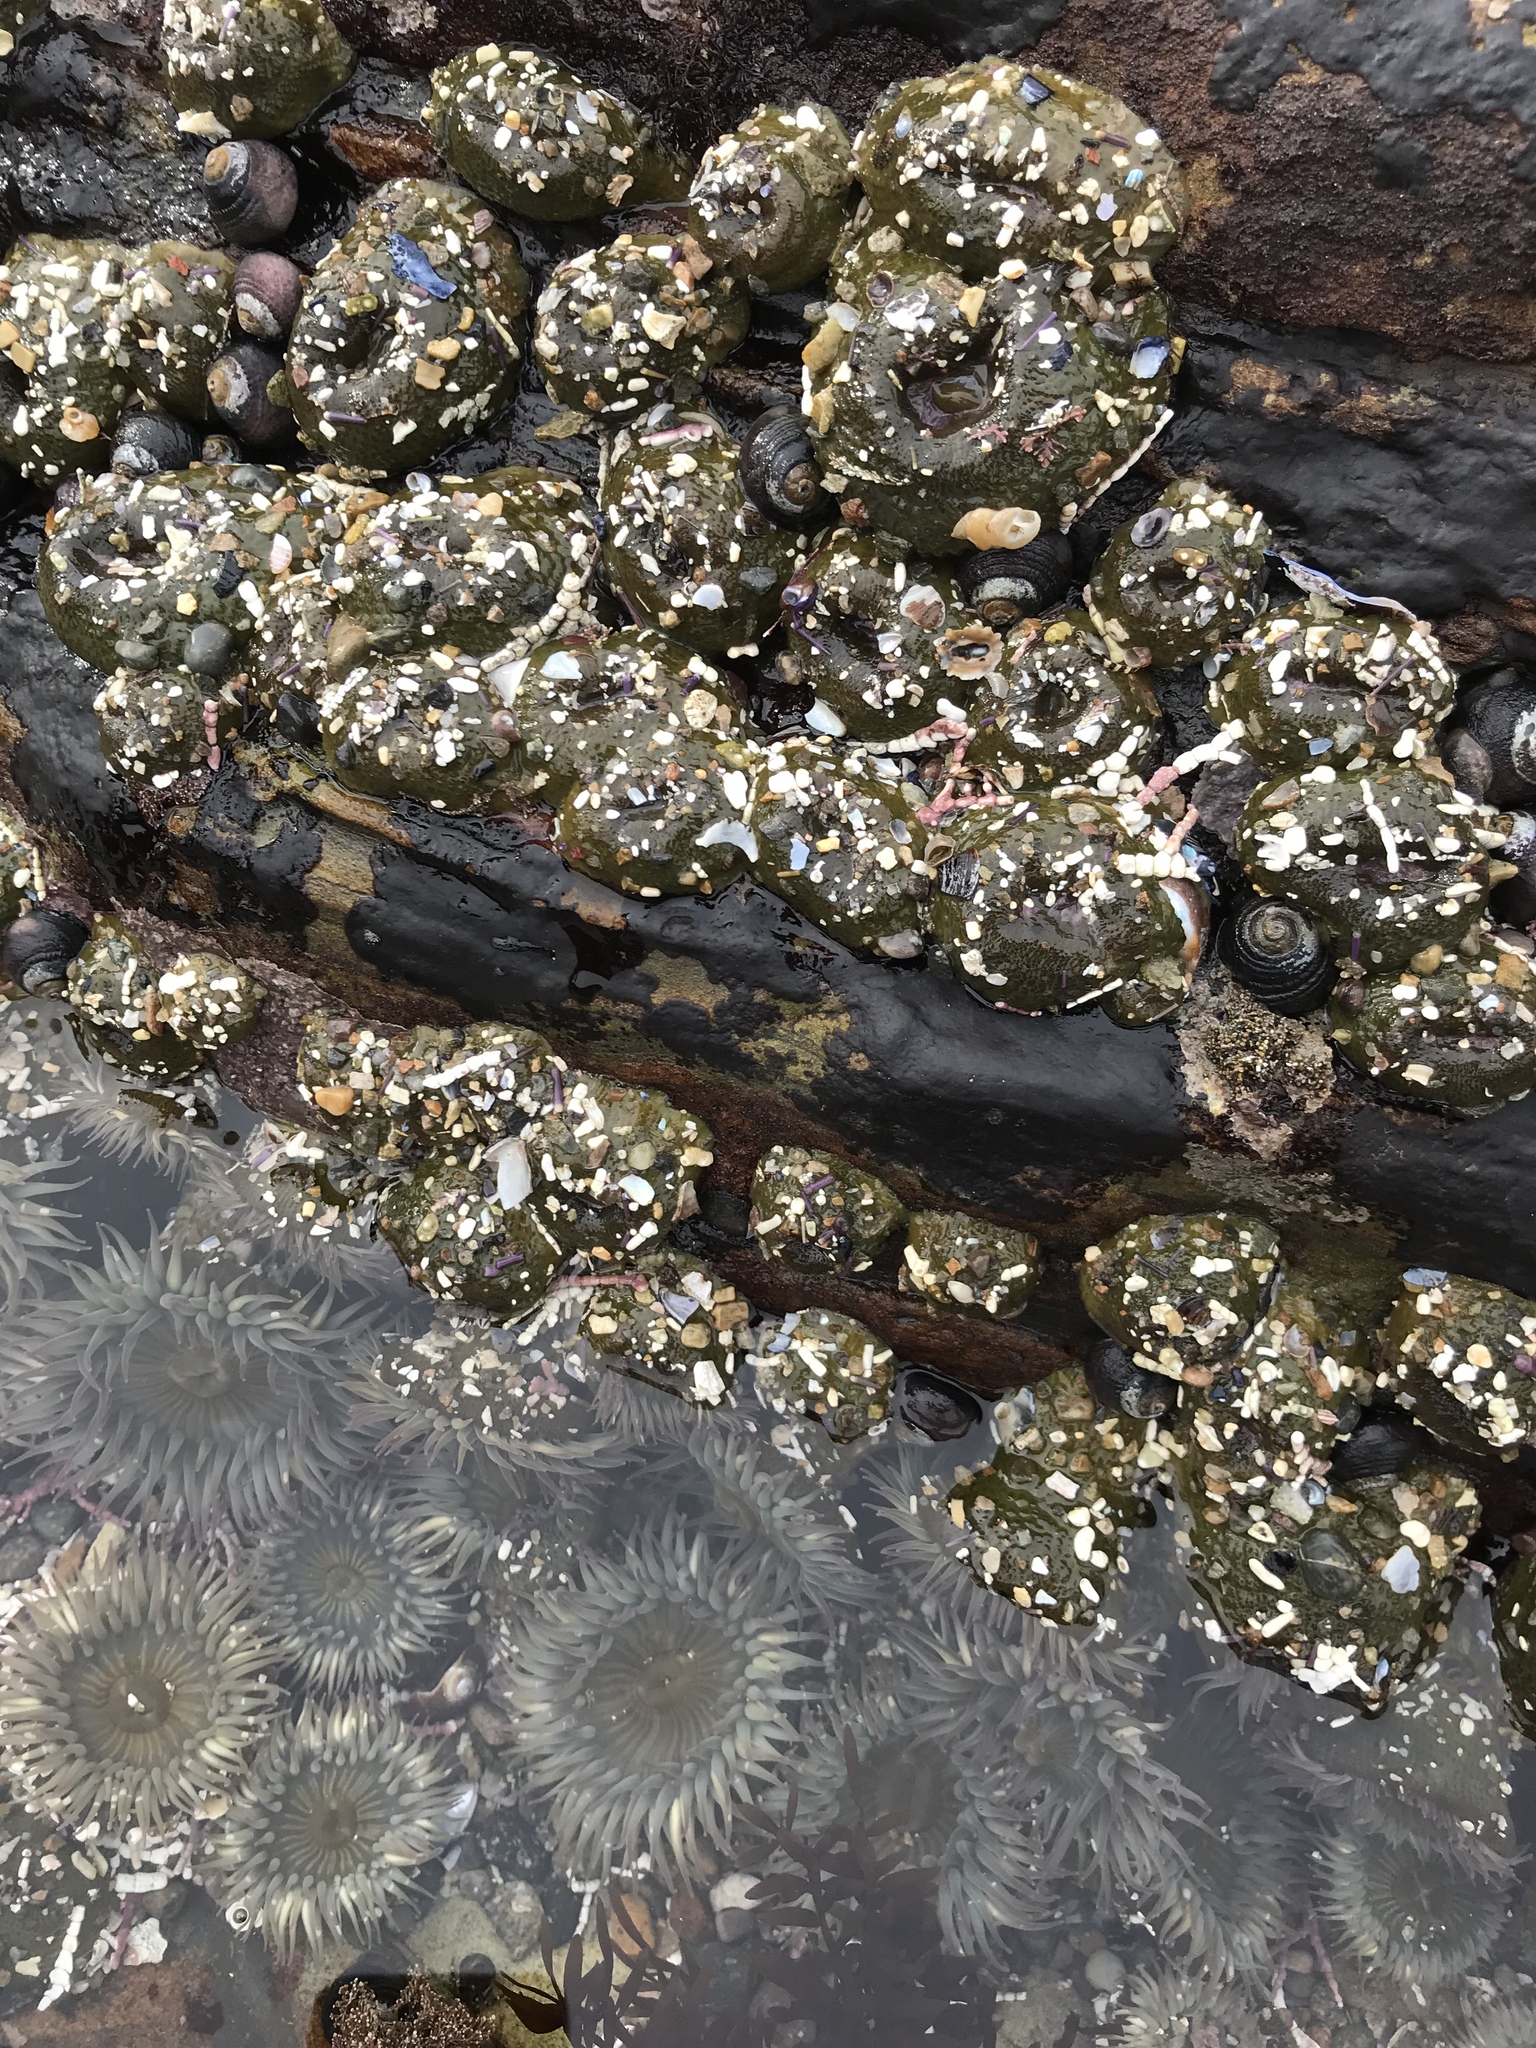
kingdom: Animalia
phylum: Cnidaria
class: Anthozoa
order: Actiniaria
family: Actiniidae
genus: Anthopleura
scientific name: Anthopleura elegantissima
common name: Clonal anemone
